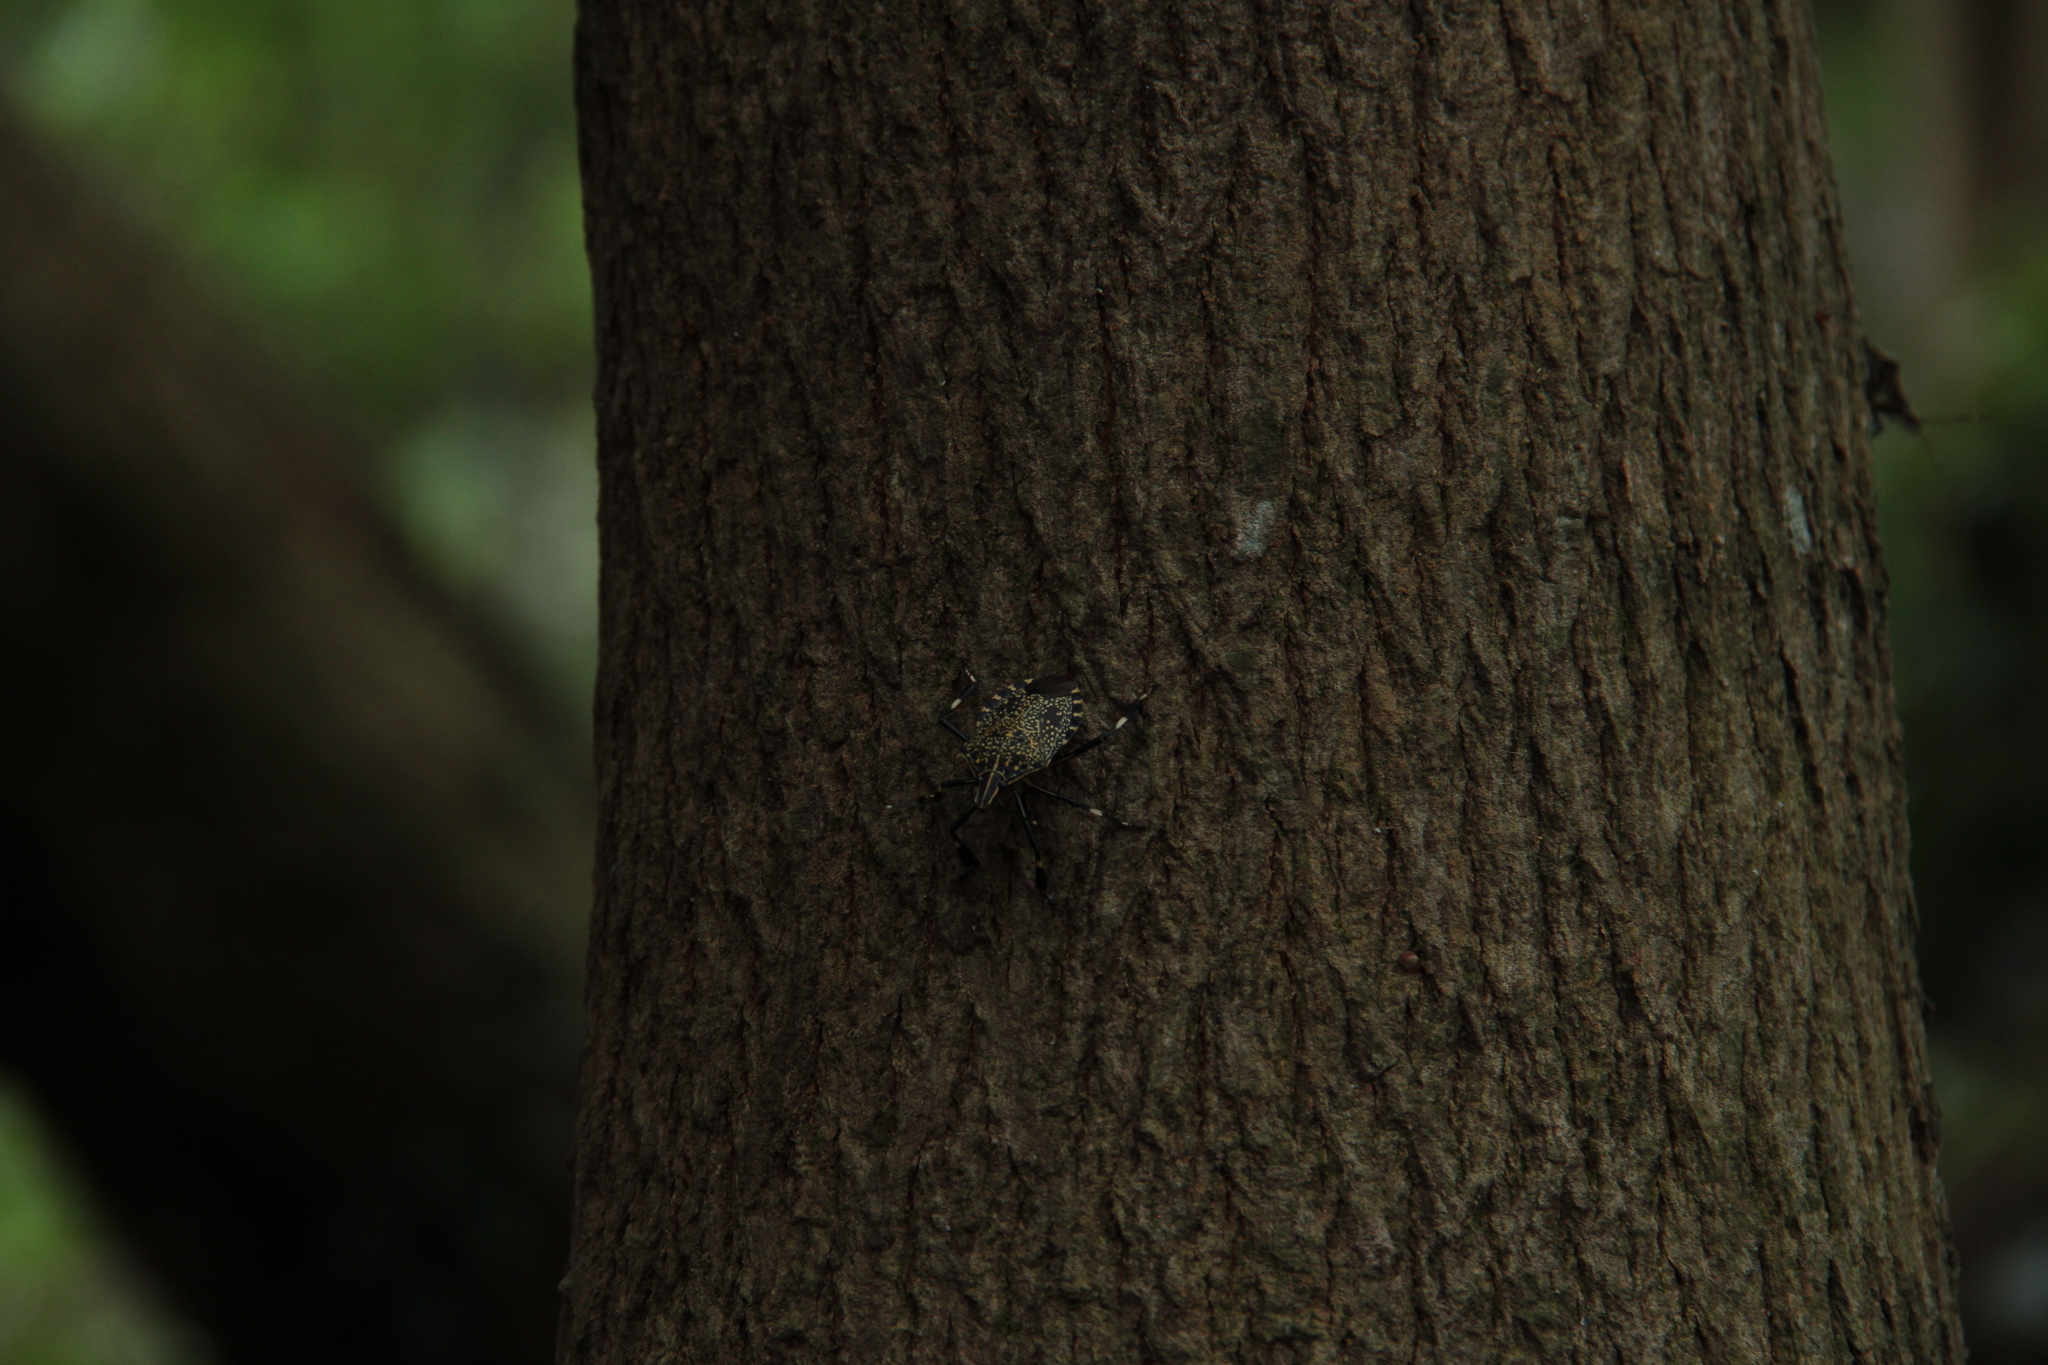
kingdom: Animalia
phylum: Arthropoda
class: Insecta
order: Hemiptera
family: Pentatomidae
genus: Erthesina
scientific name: Erthesina fullo
